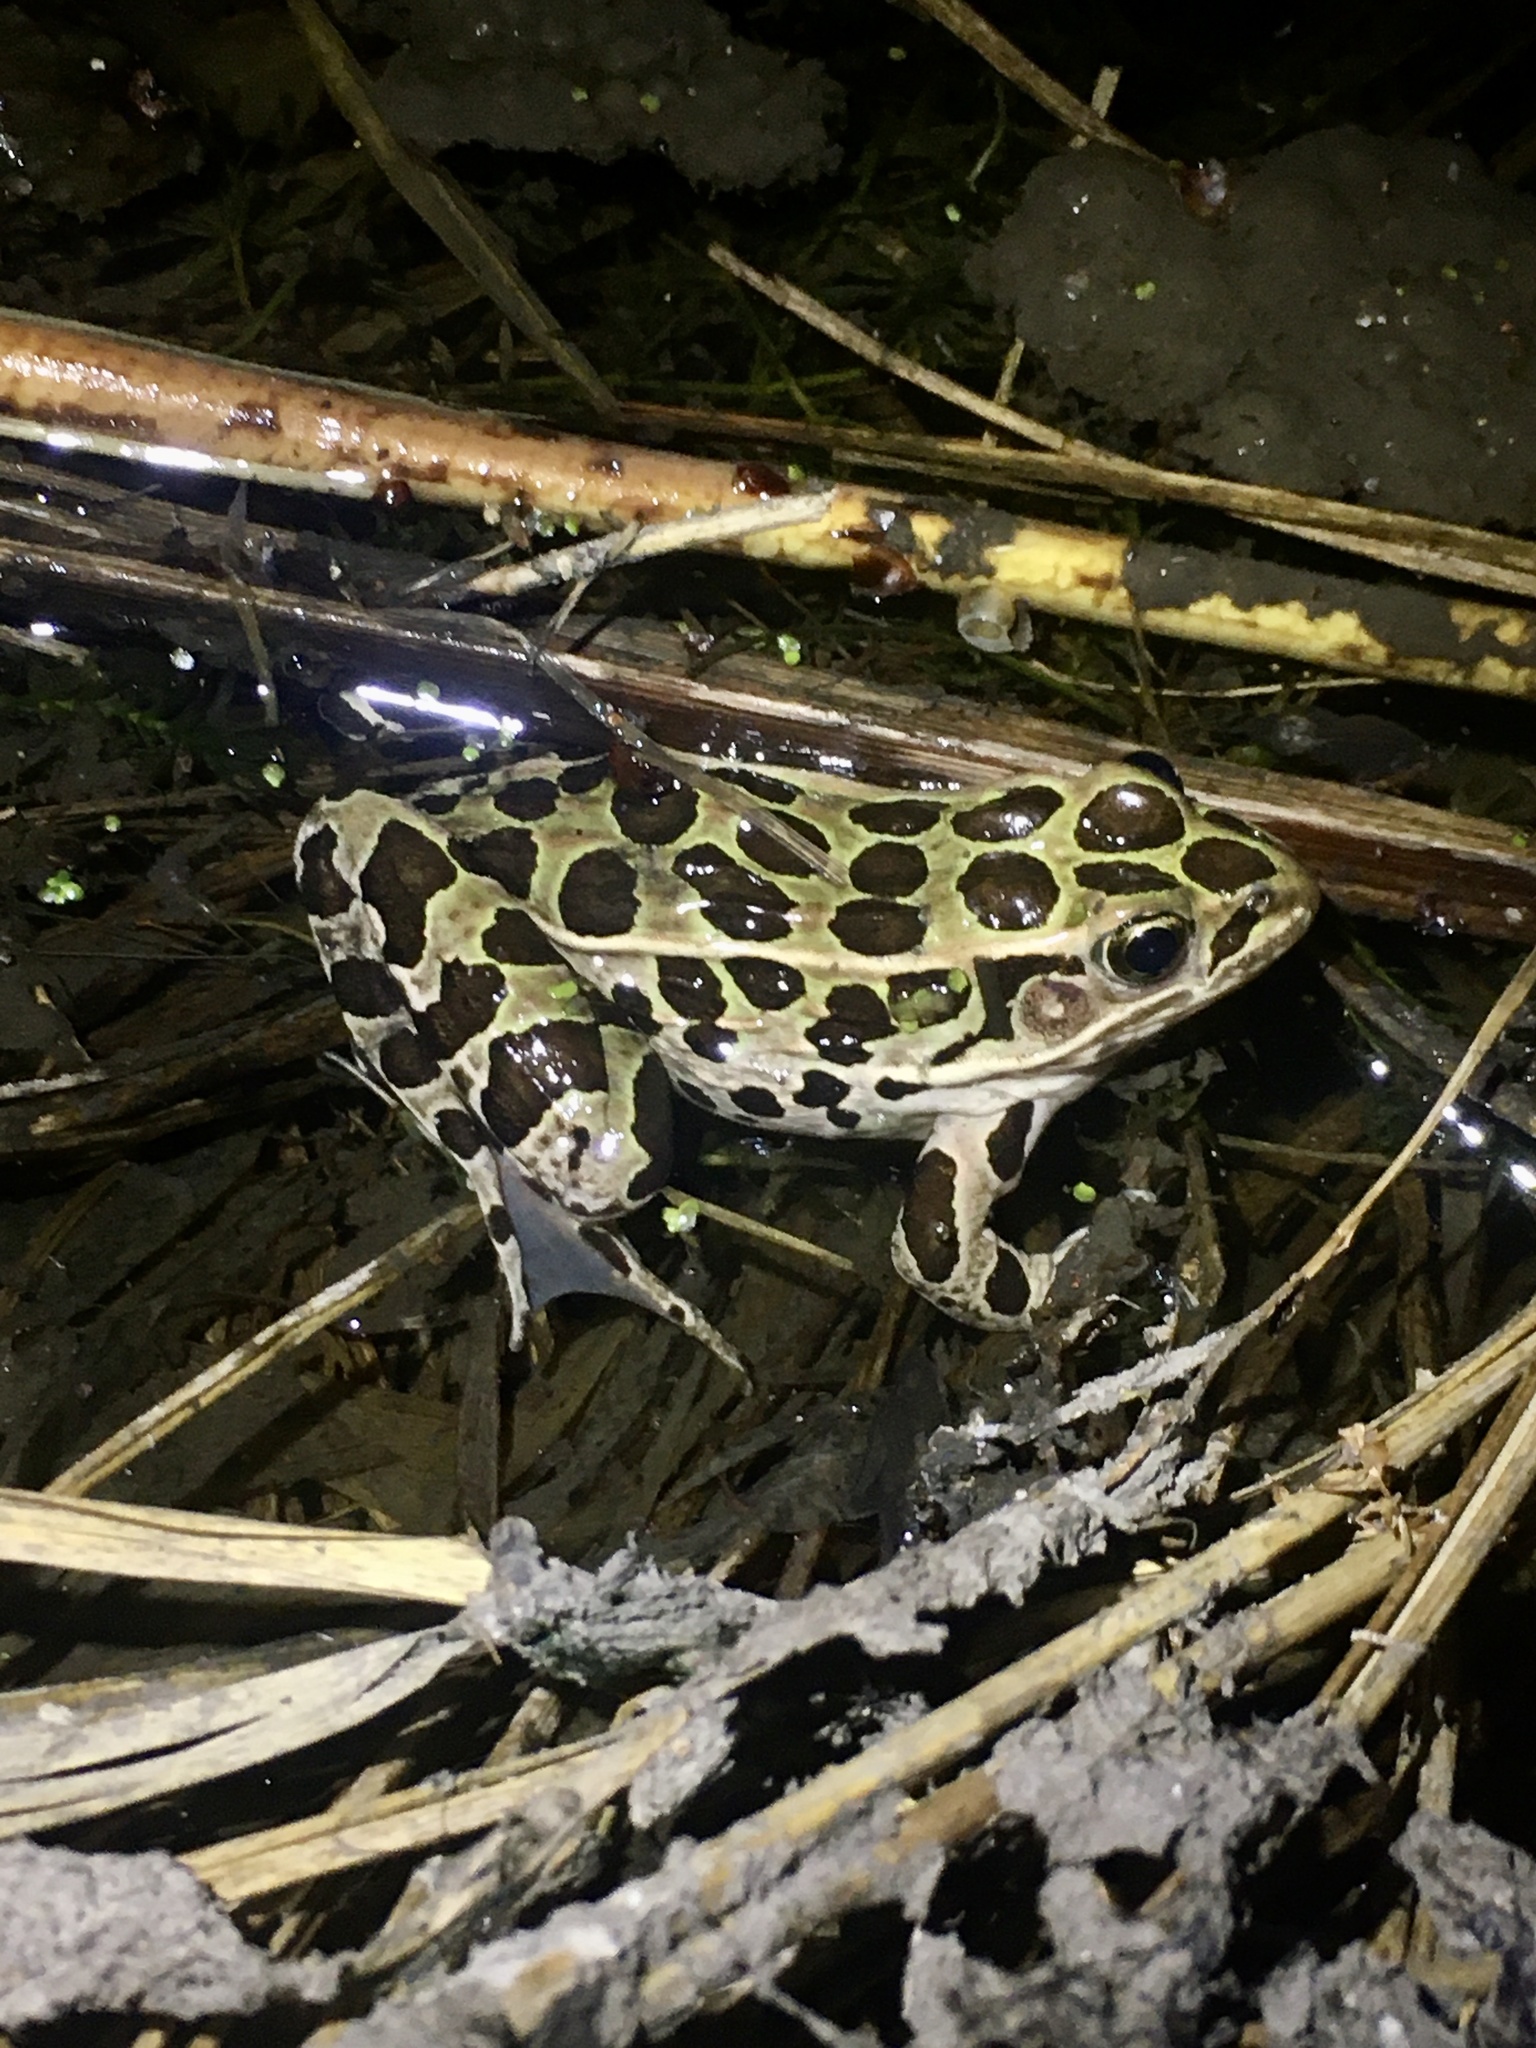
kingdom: Animalia
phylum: Chordata
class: Amphibia
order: Anura
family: Ranidae
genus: Lithobates
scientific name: Lithobates pipiens
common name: Northern leopard frog
